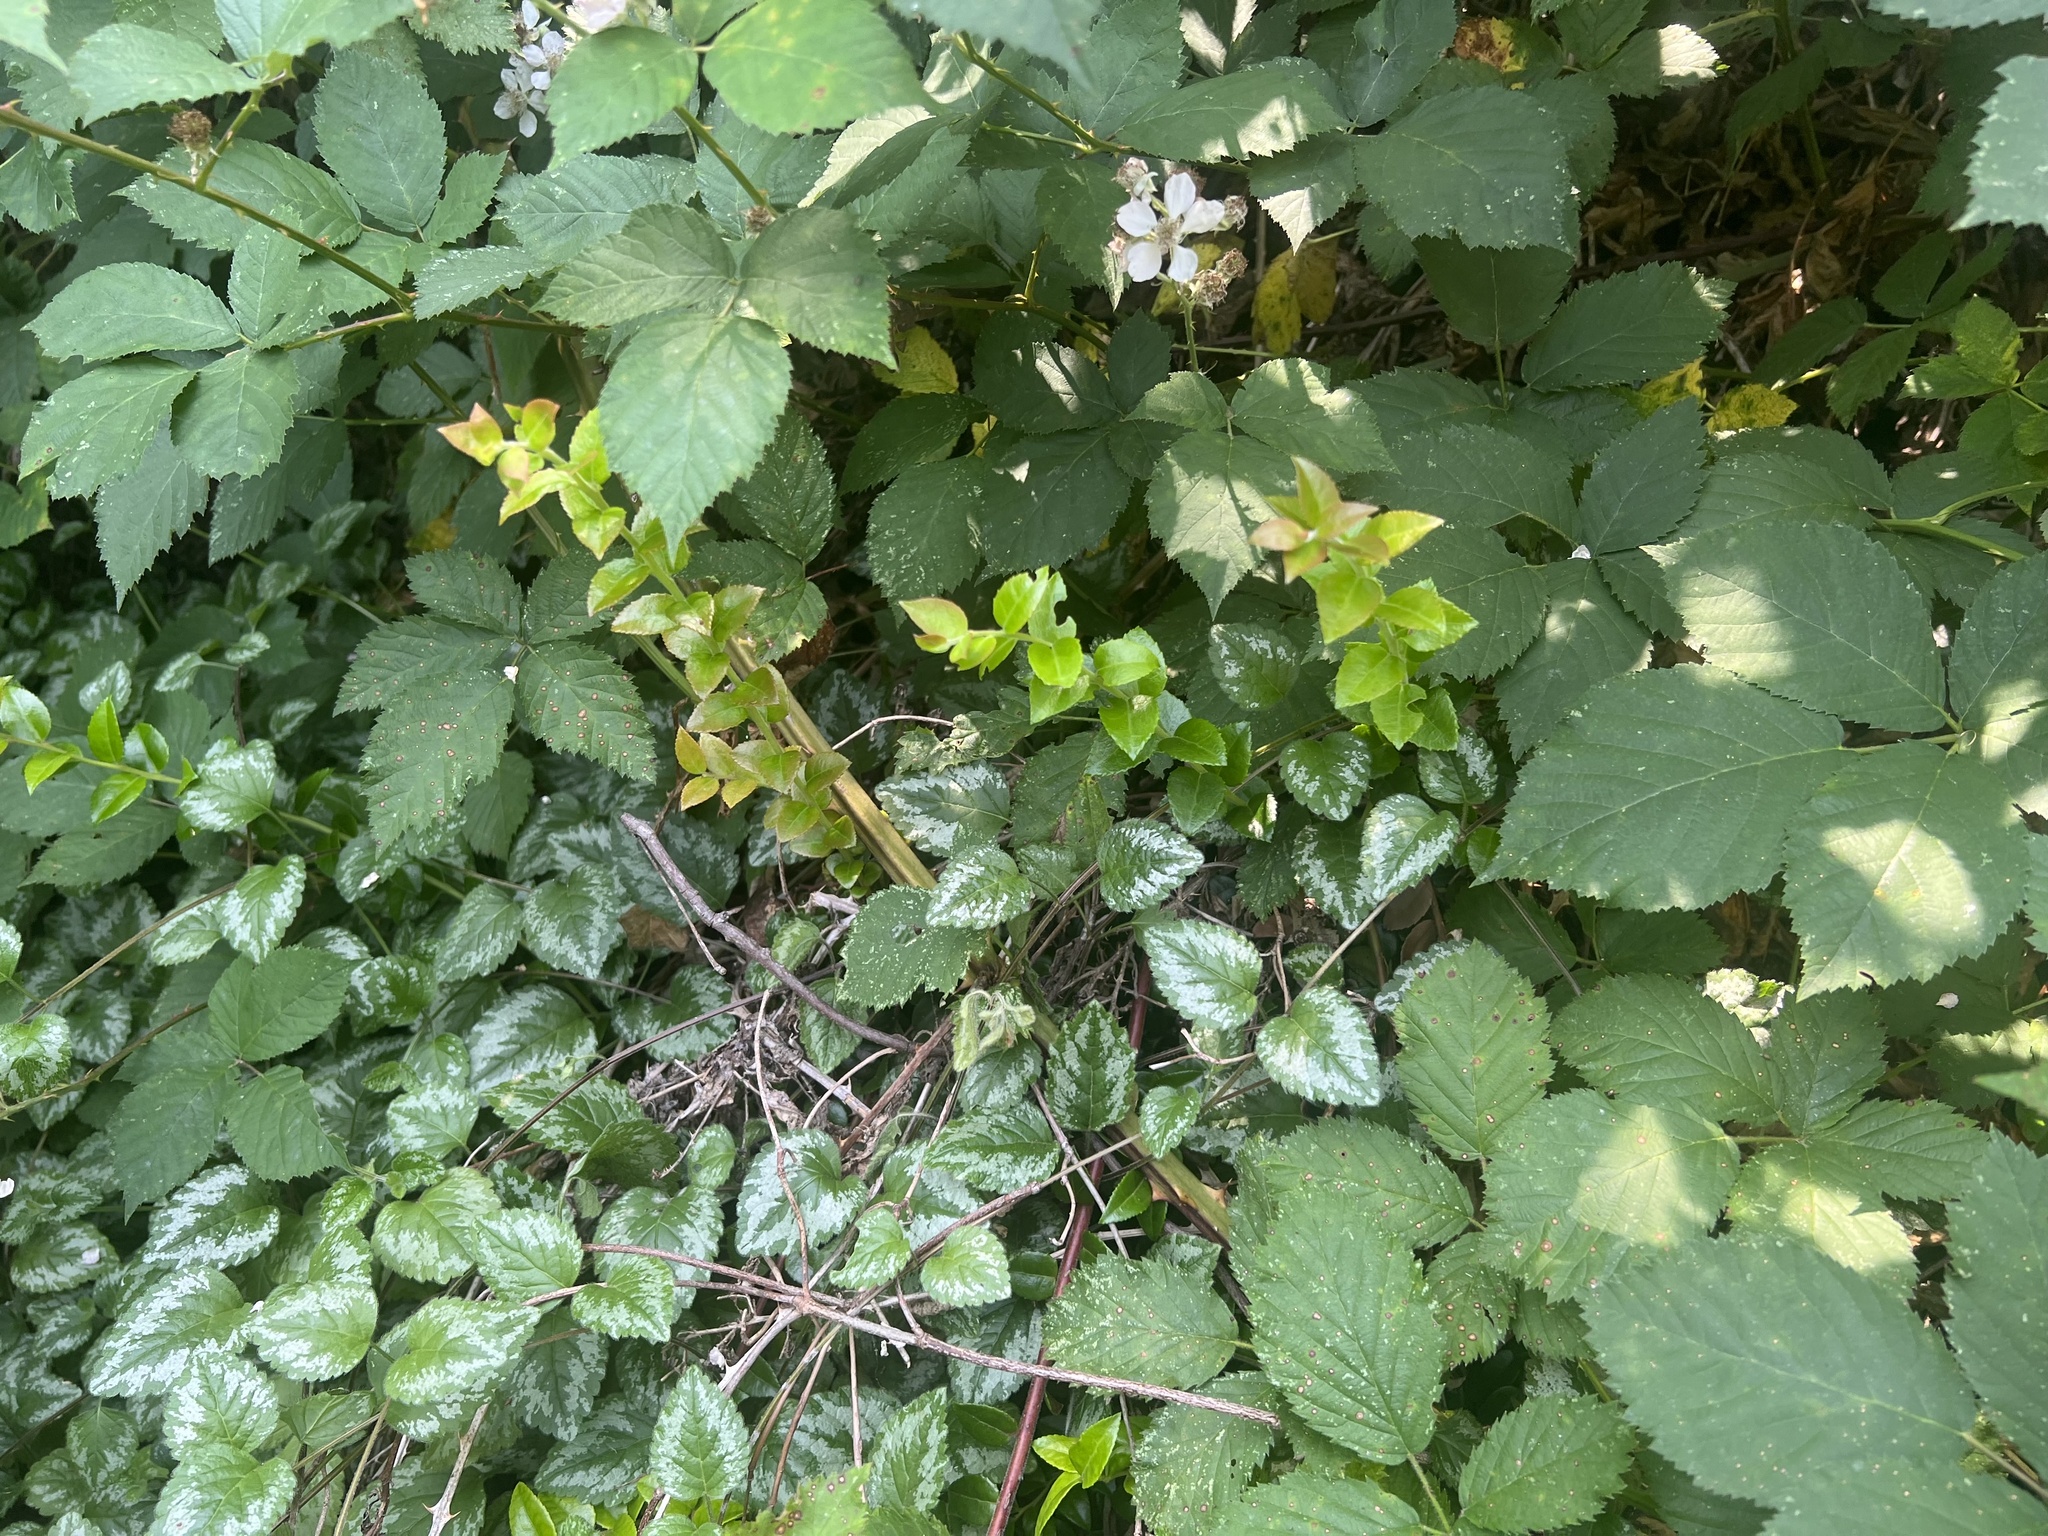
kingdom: Plantae
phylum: Tracheophyta
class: Magnoliopsida
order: Ericales
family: Ericaceae
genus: Vaccinium
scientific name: Vaccinium ovatum
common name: California-huckleberry
